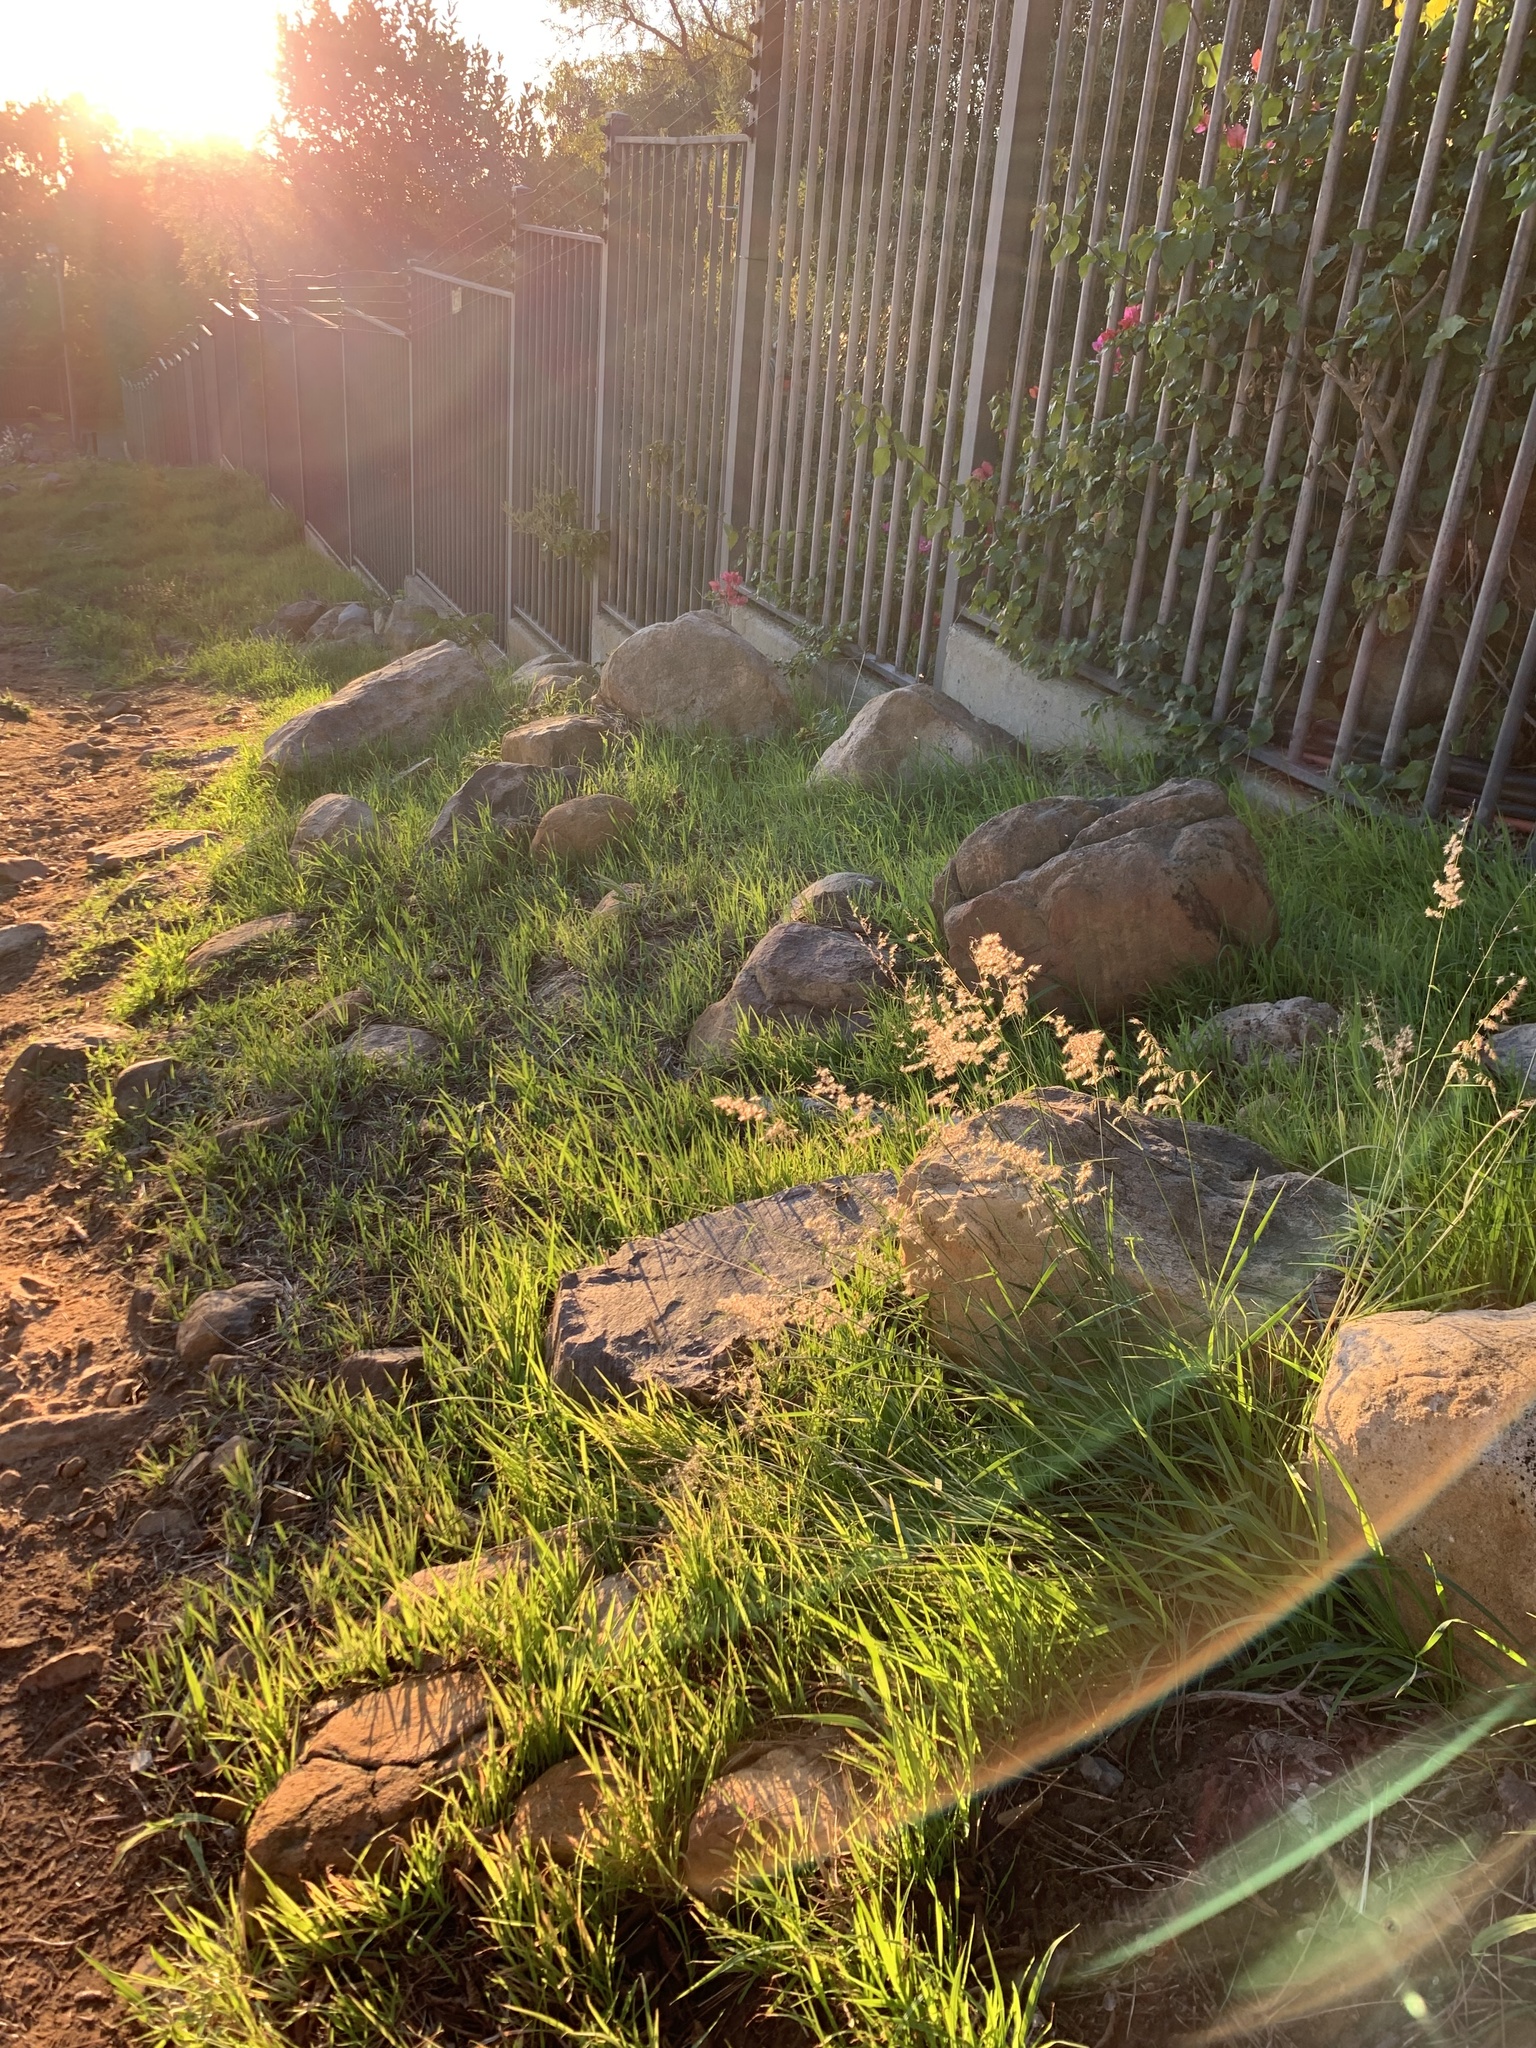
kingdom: Plantae
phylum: Tracheophyta
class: Liliopsida
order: Poales
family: Poaceae
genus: Melinis
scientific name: Melinis repens
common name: Rose natal grass
